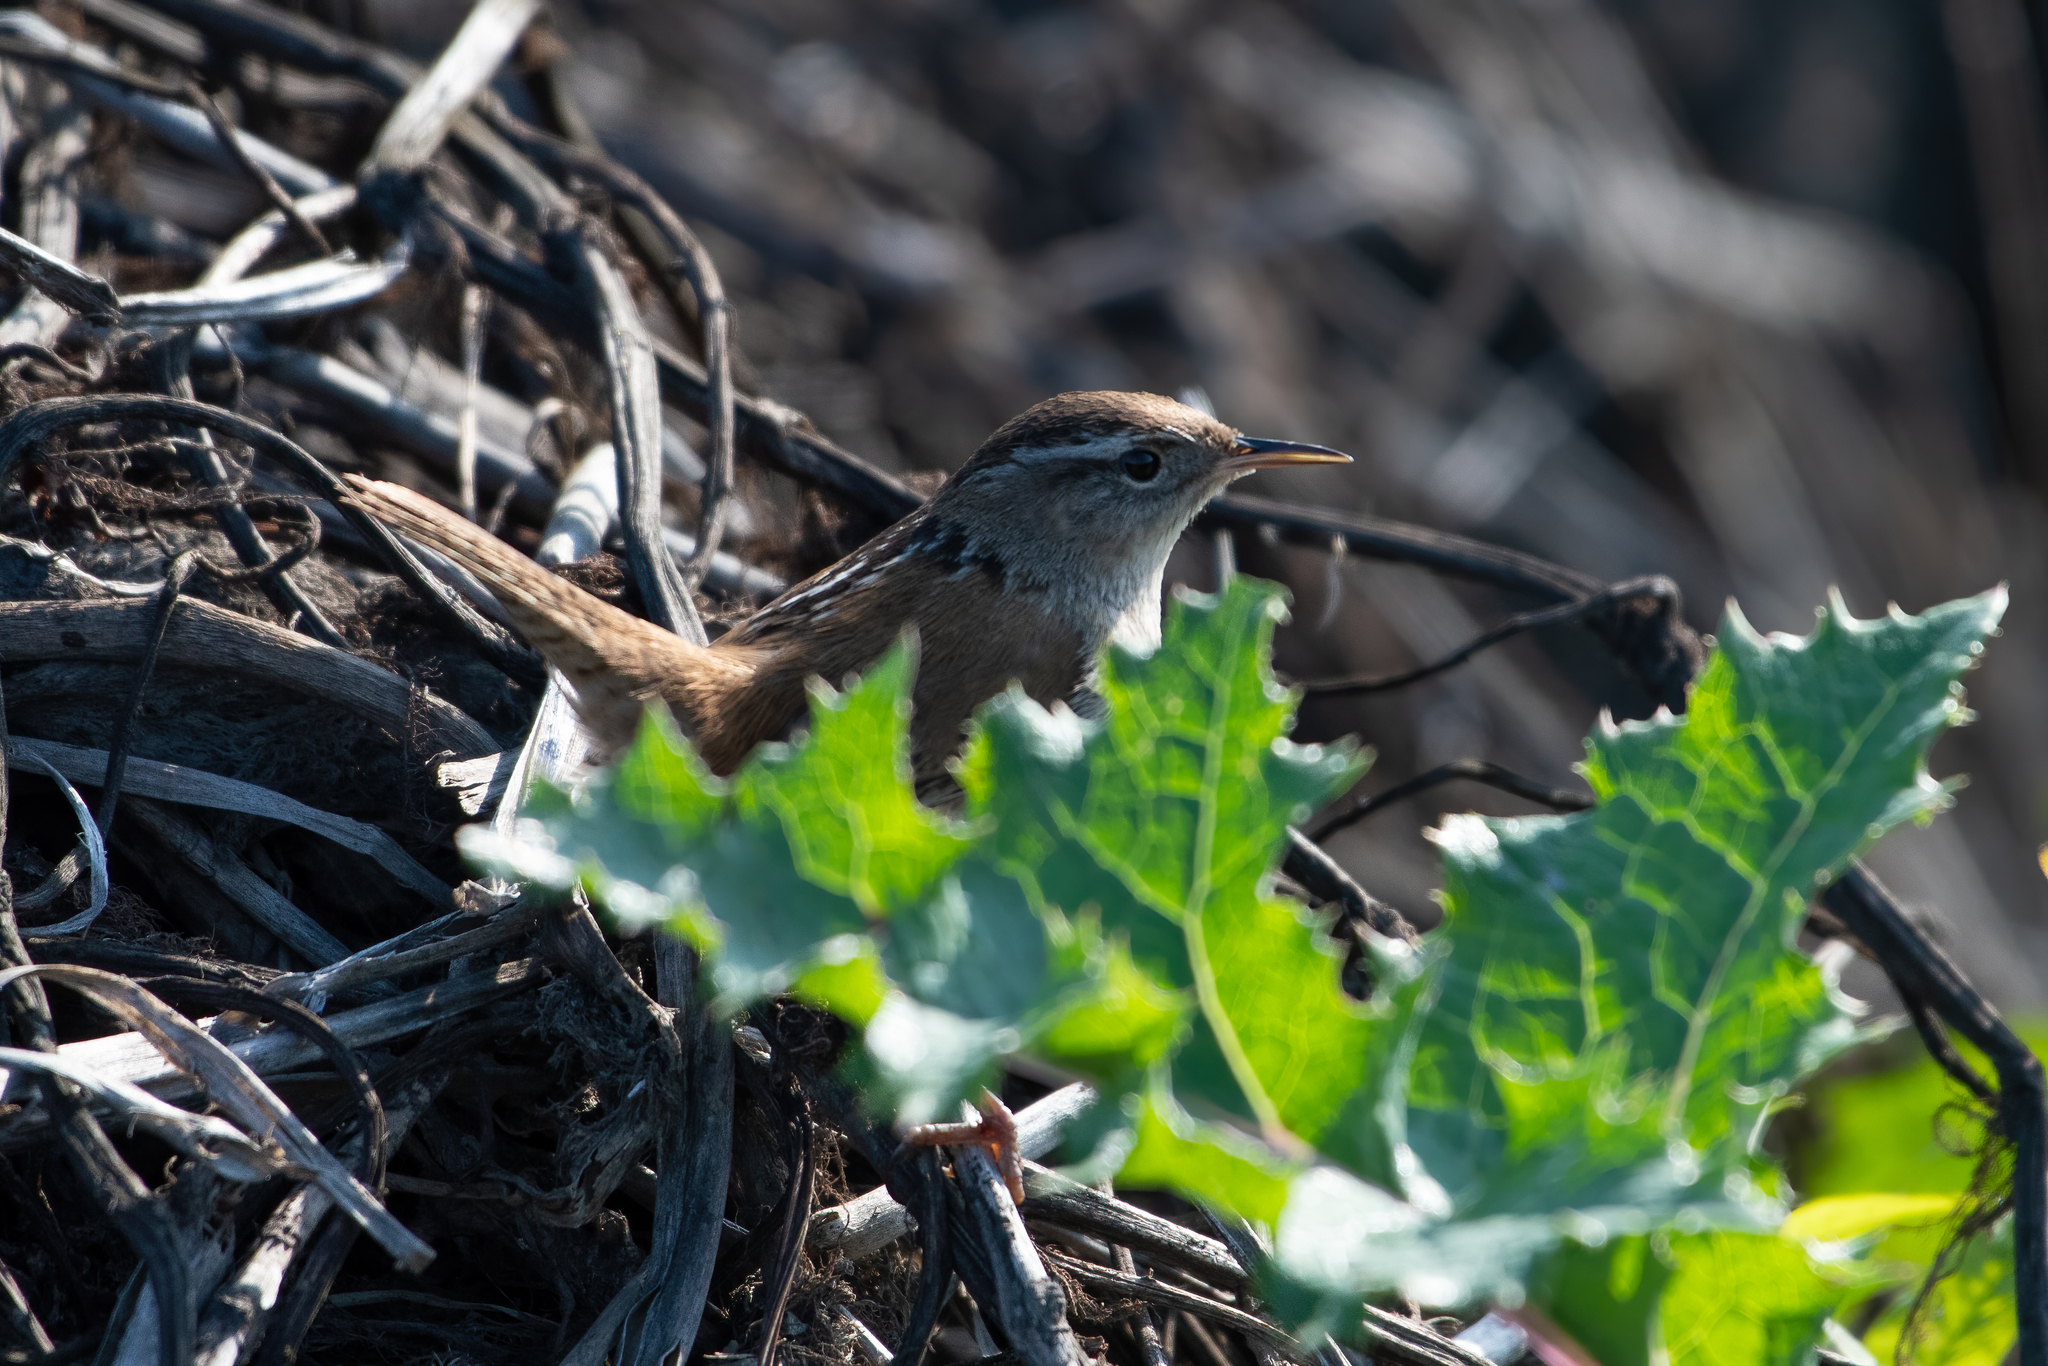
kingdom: Animalia
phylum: Chordata
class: Aves
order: Passeriformes
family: Troglodytidae
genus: Cistothorus
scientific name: Cistothorus palustris
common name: Marsh wren
